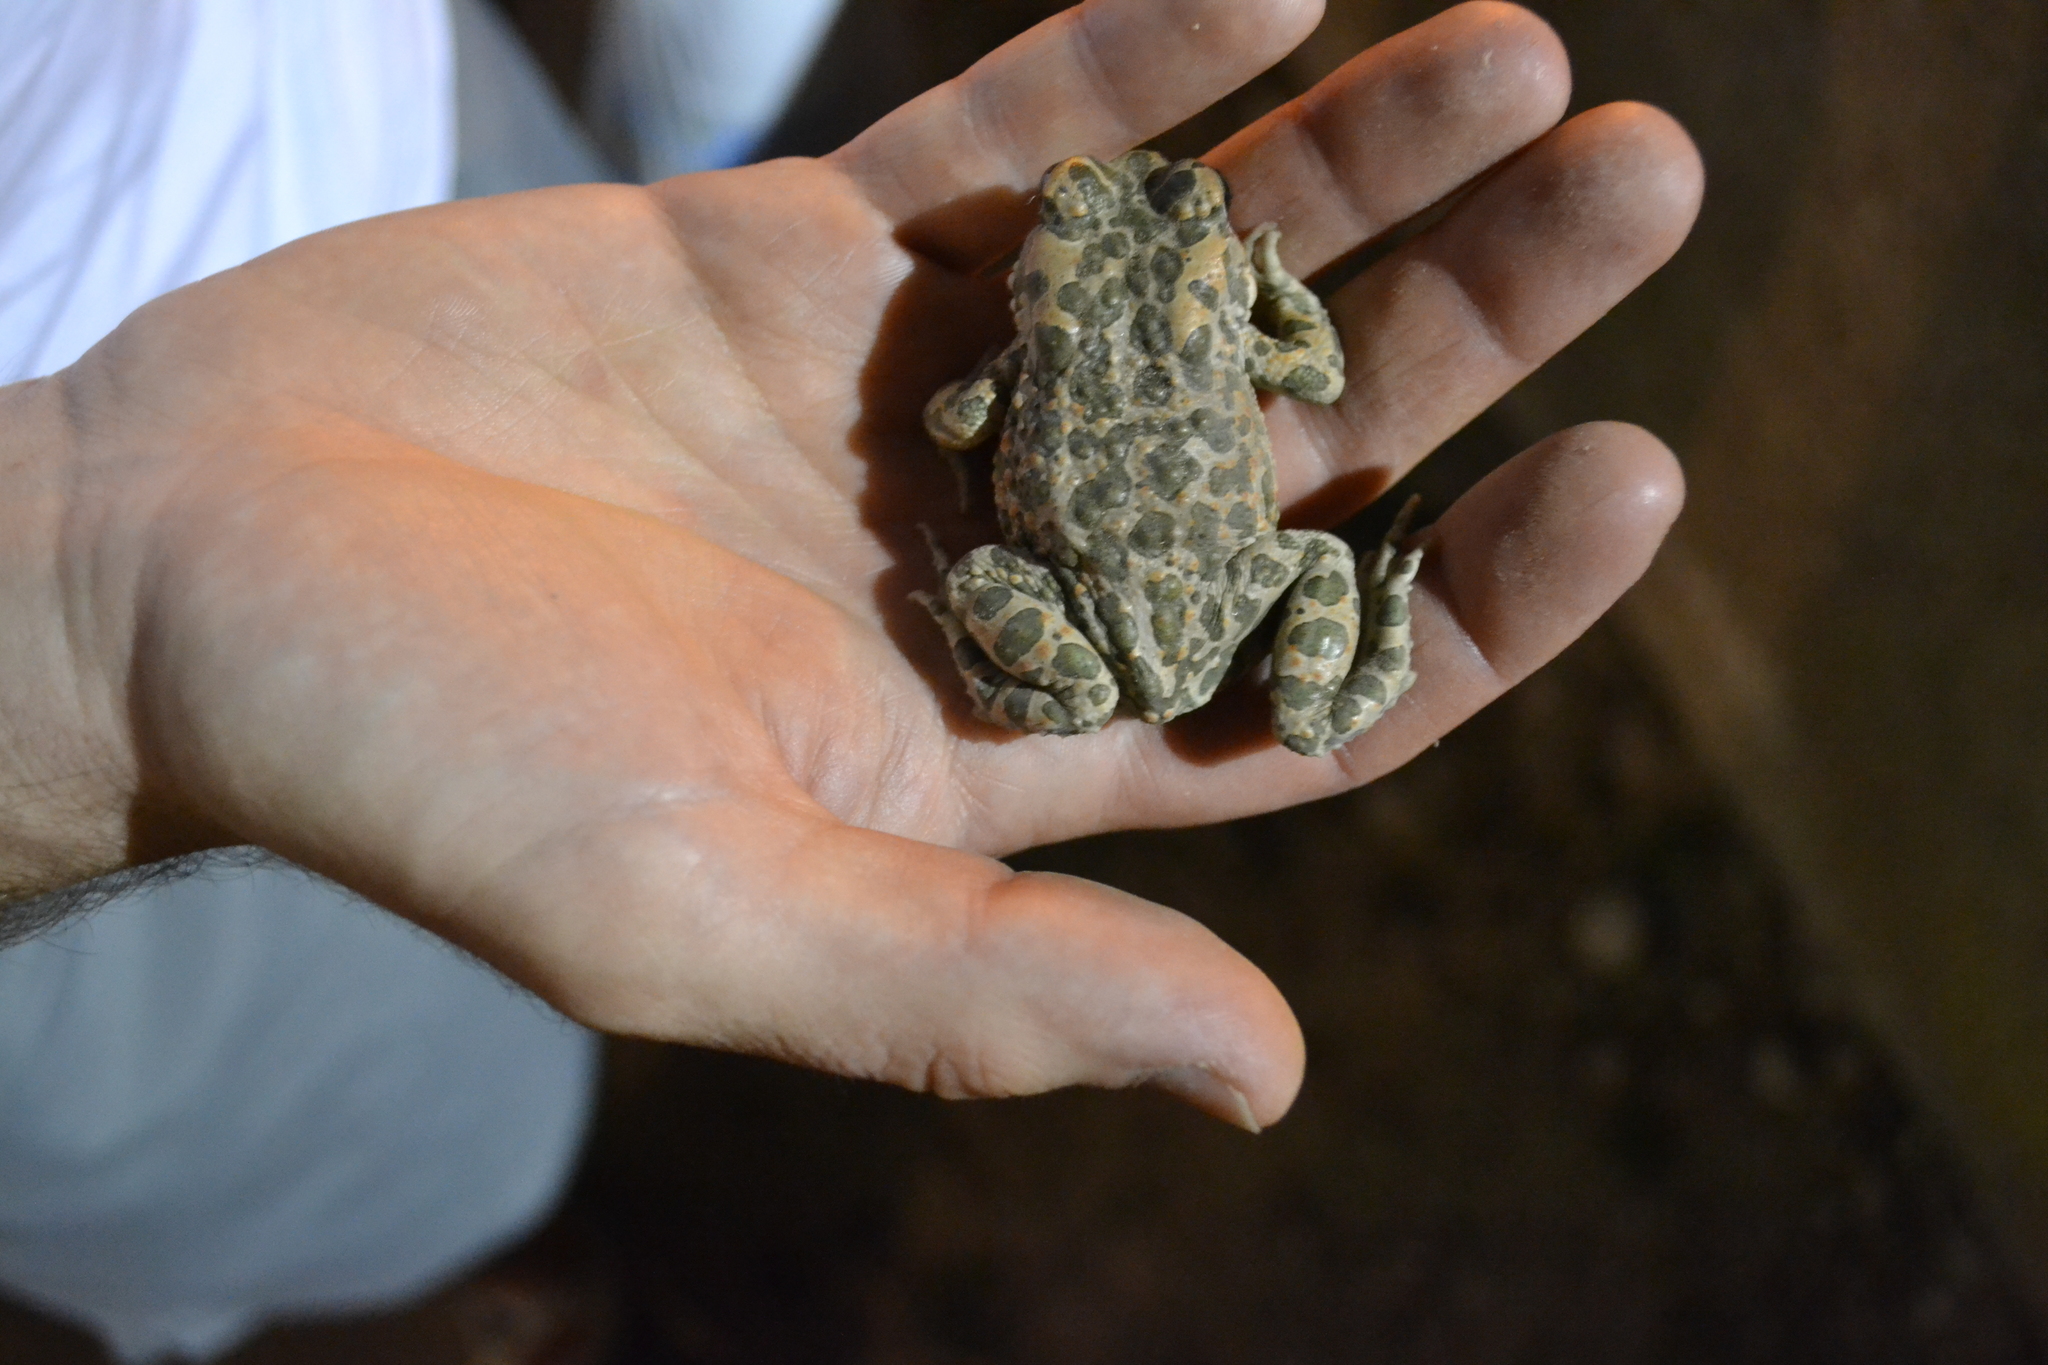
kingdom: Animalia
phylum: Chordata
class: Amphibia
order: Anura
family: Bufonidae
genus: Bufotes
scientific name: Bufotes viridis
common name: European green toad
